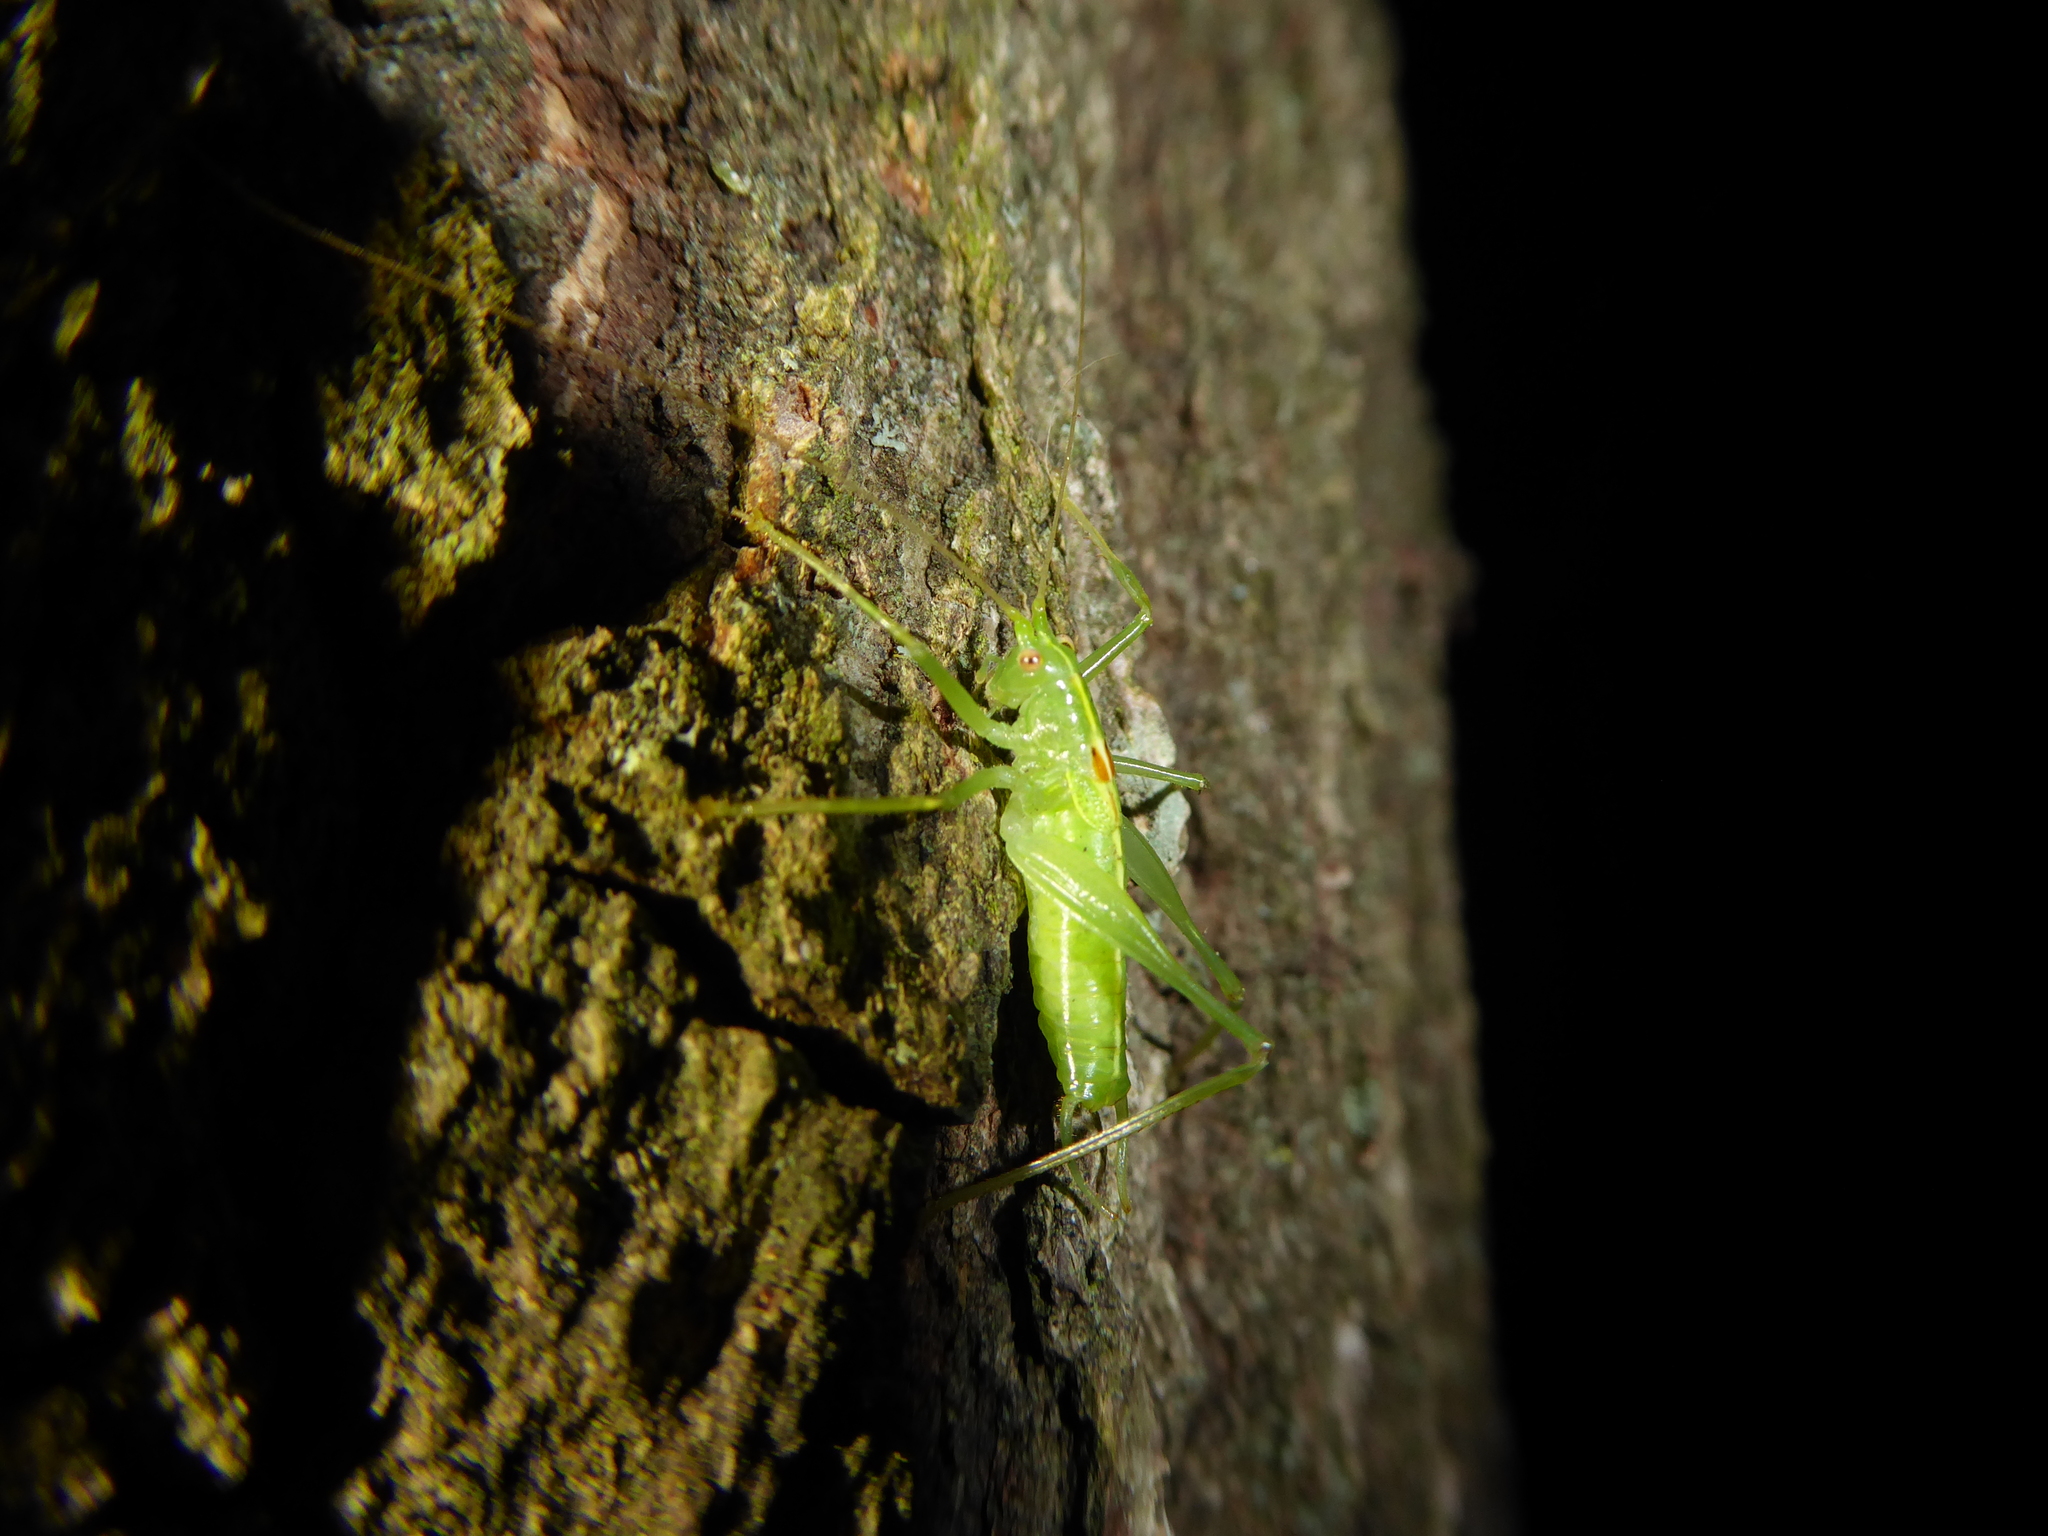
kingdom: Animalia
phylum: Arthropoda
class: Insecta
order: Orthoptera
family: Tettigoniidae
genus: Meconema
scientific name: Meconema meridionale
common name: Southern oak bush-cricket
